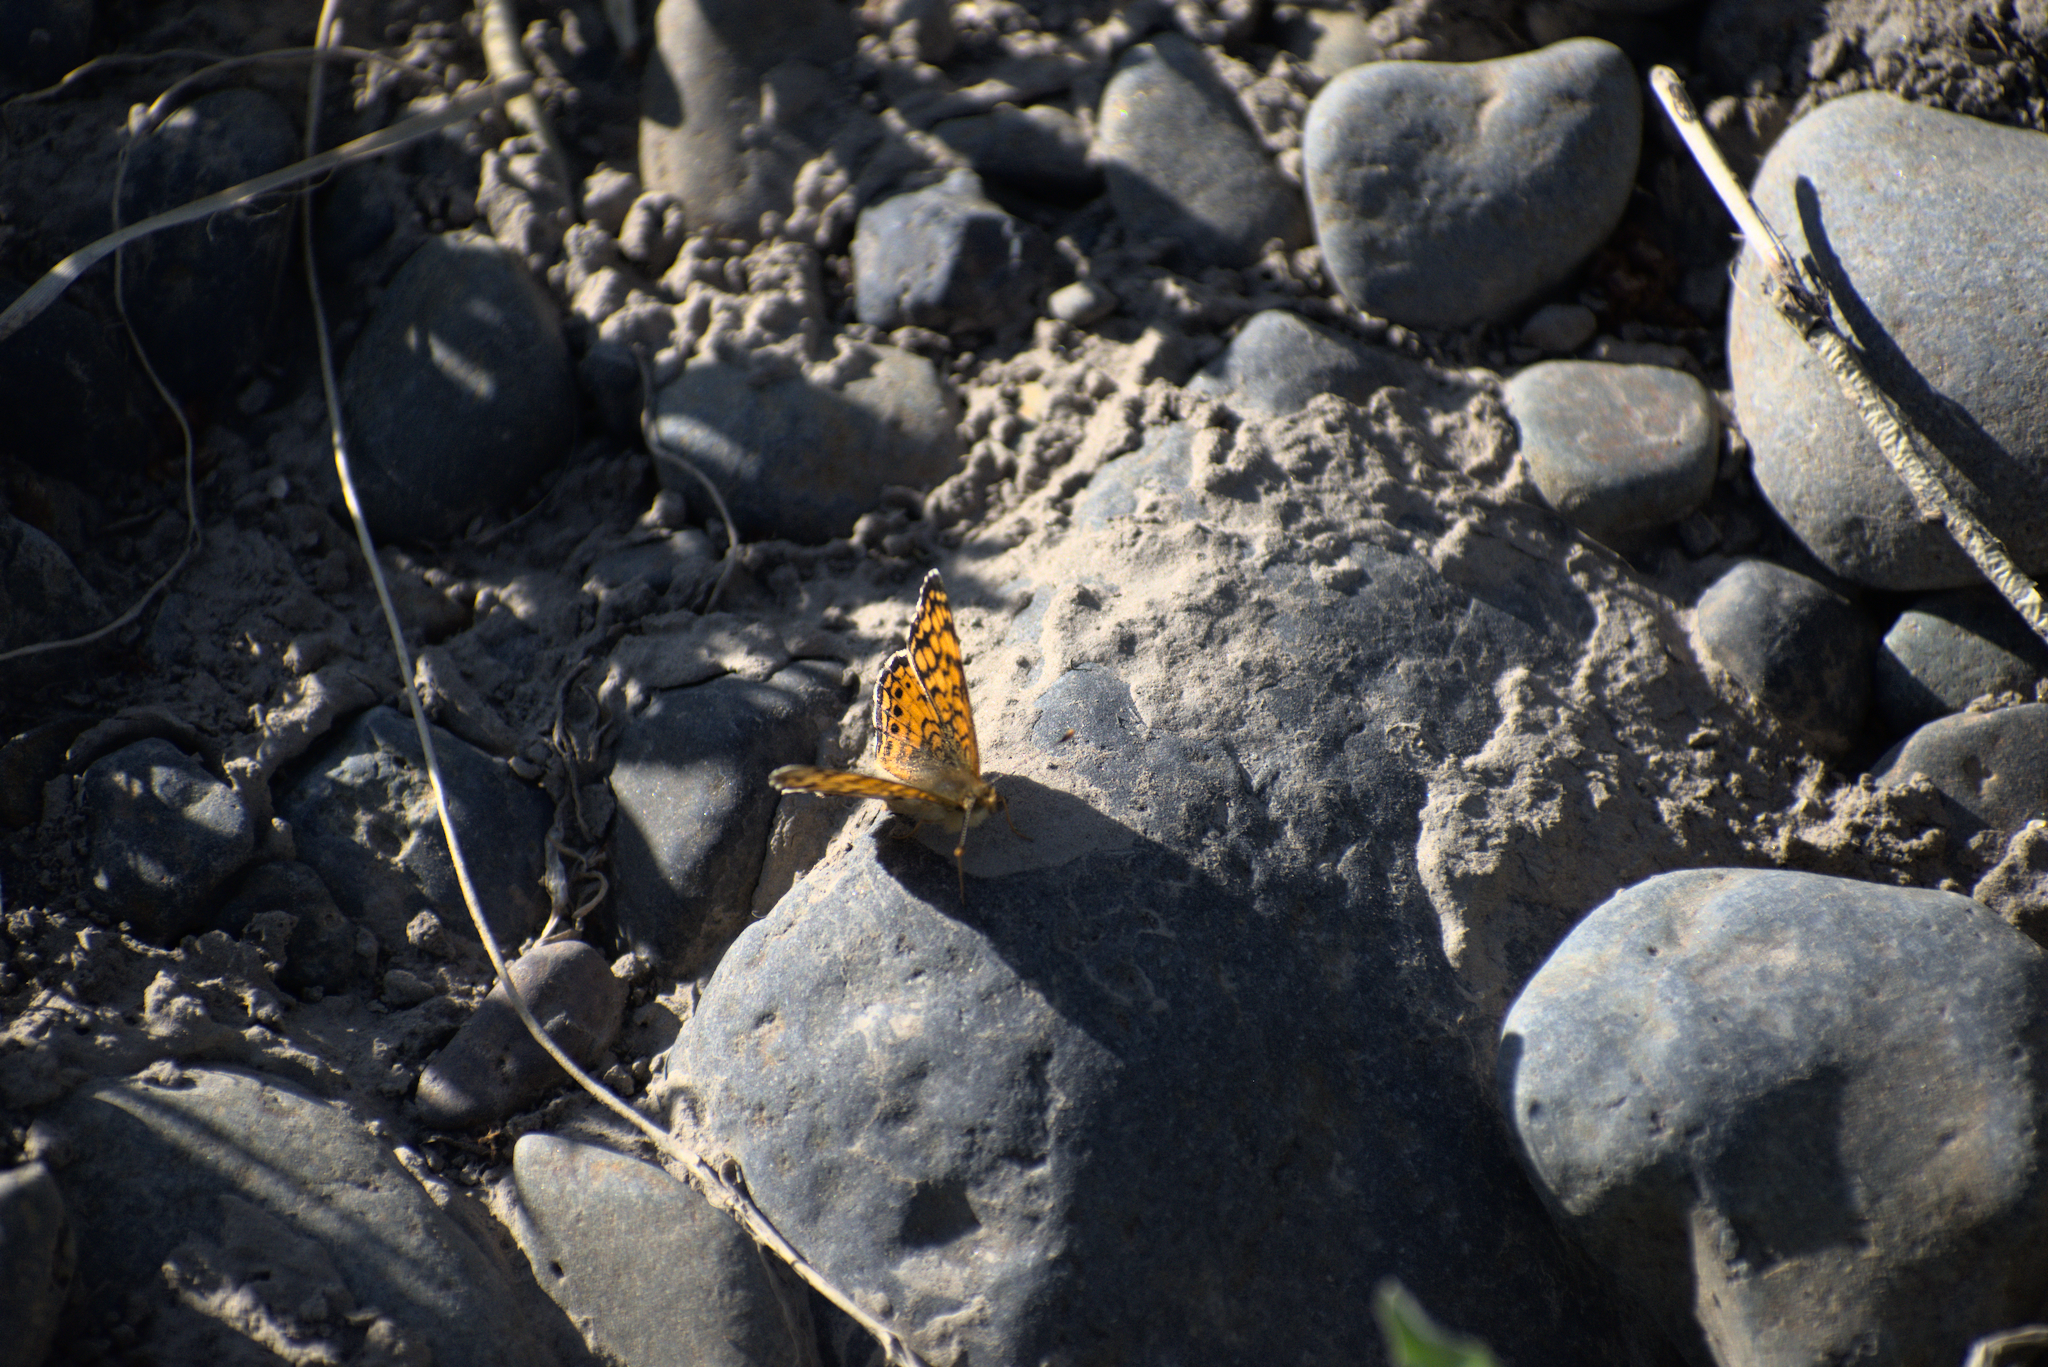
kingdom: Animalia
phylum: Arthropoda
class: Insecta
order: Lepidoptera
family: Nymphalidae
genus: Eresia
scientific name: Eresia aveyrona
